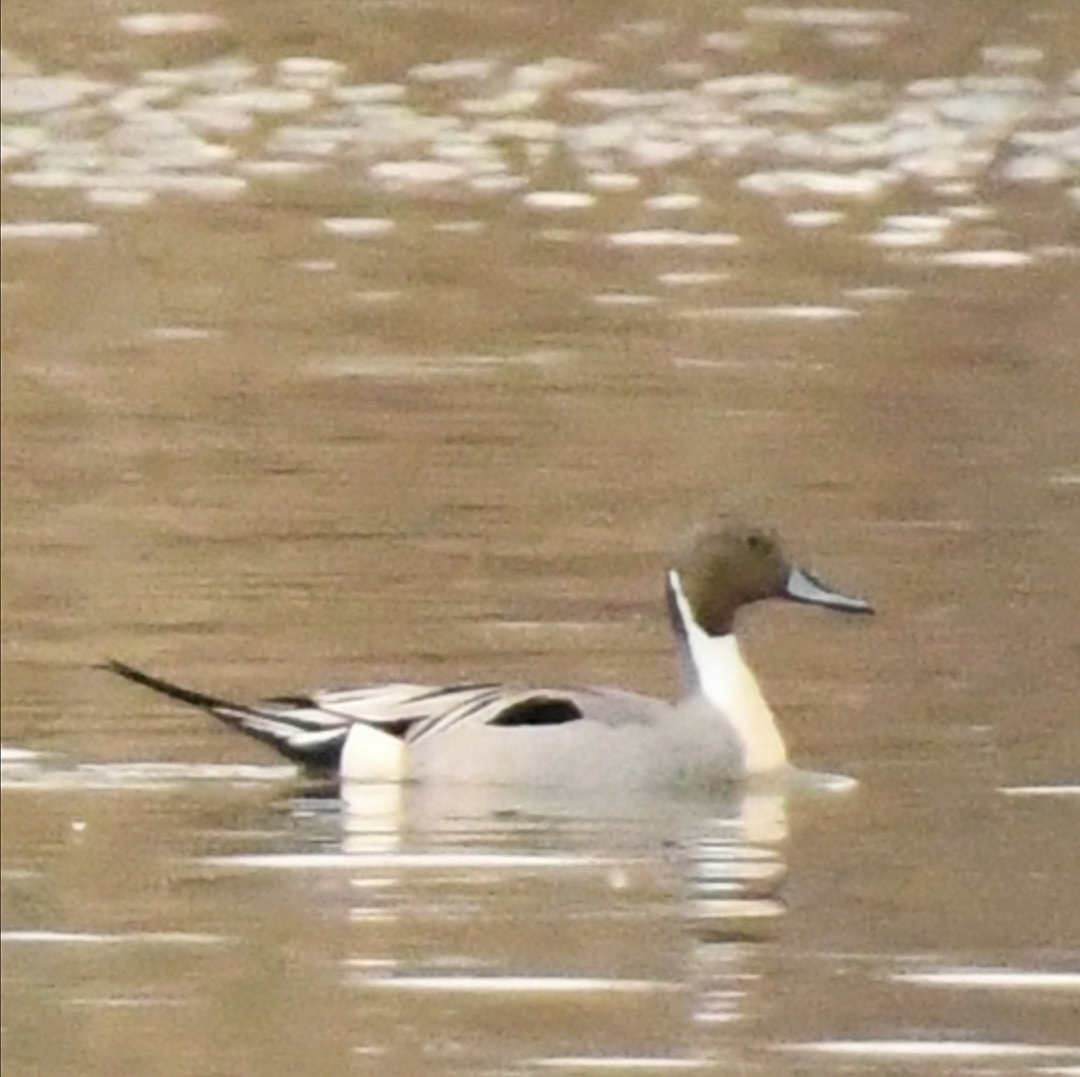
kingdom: Animalia
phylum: Chordata
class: Aves
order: Anseriformes
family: Anatidae
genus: Anas
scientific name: Anas acuta
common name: Northern pintail
